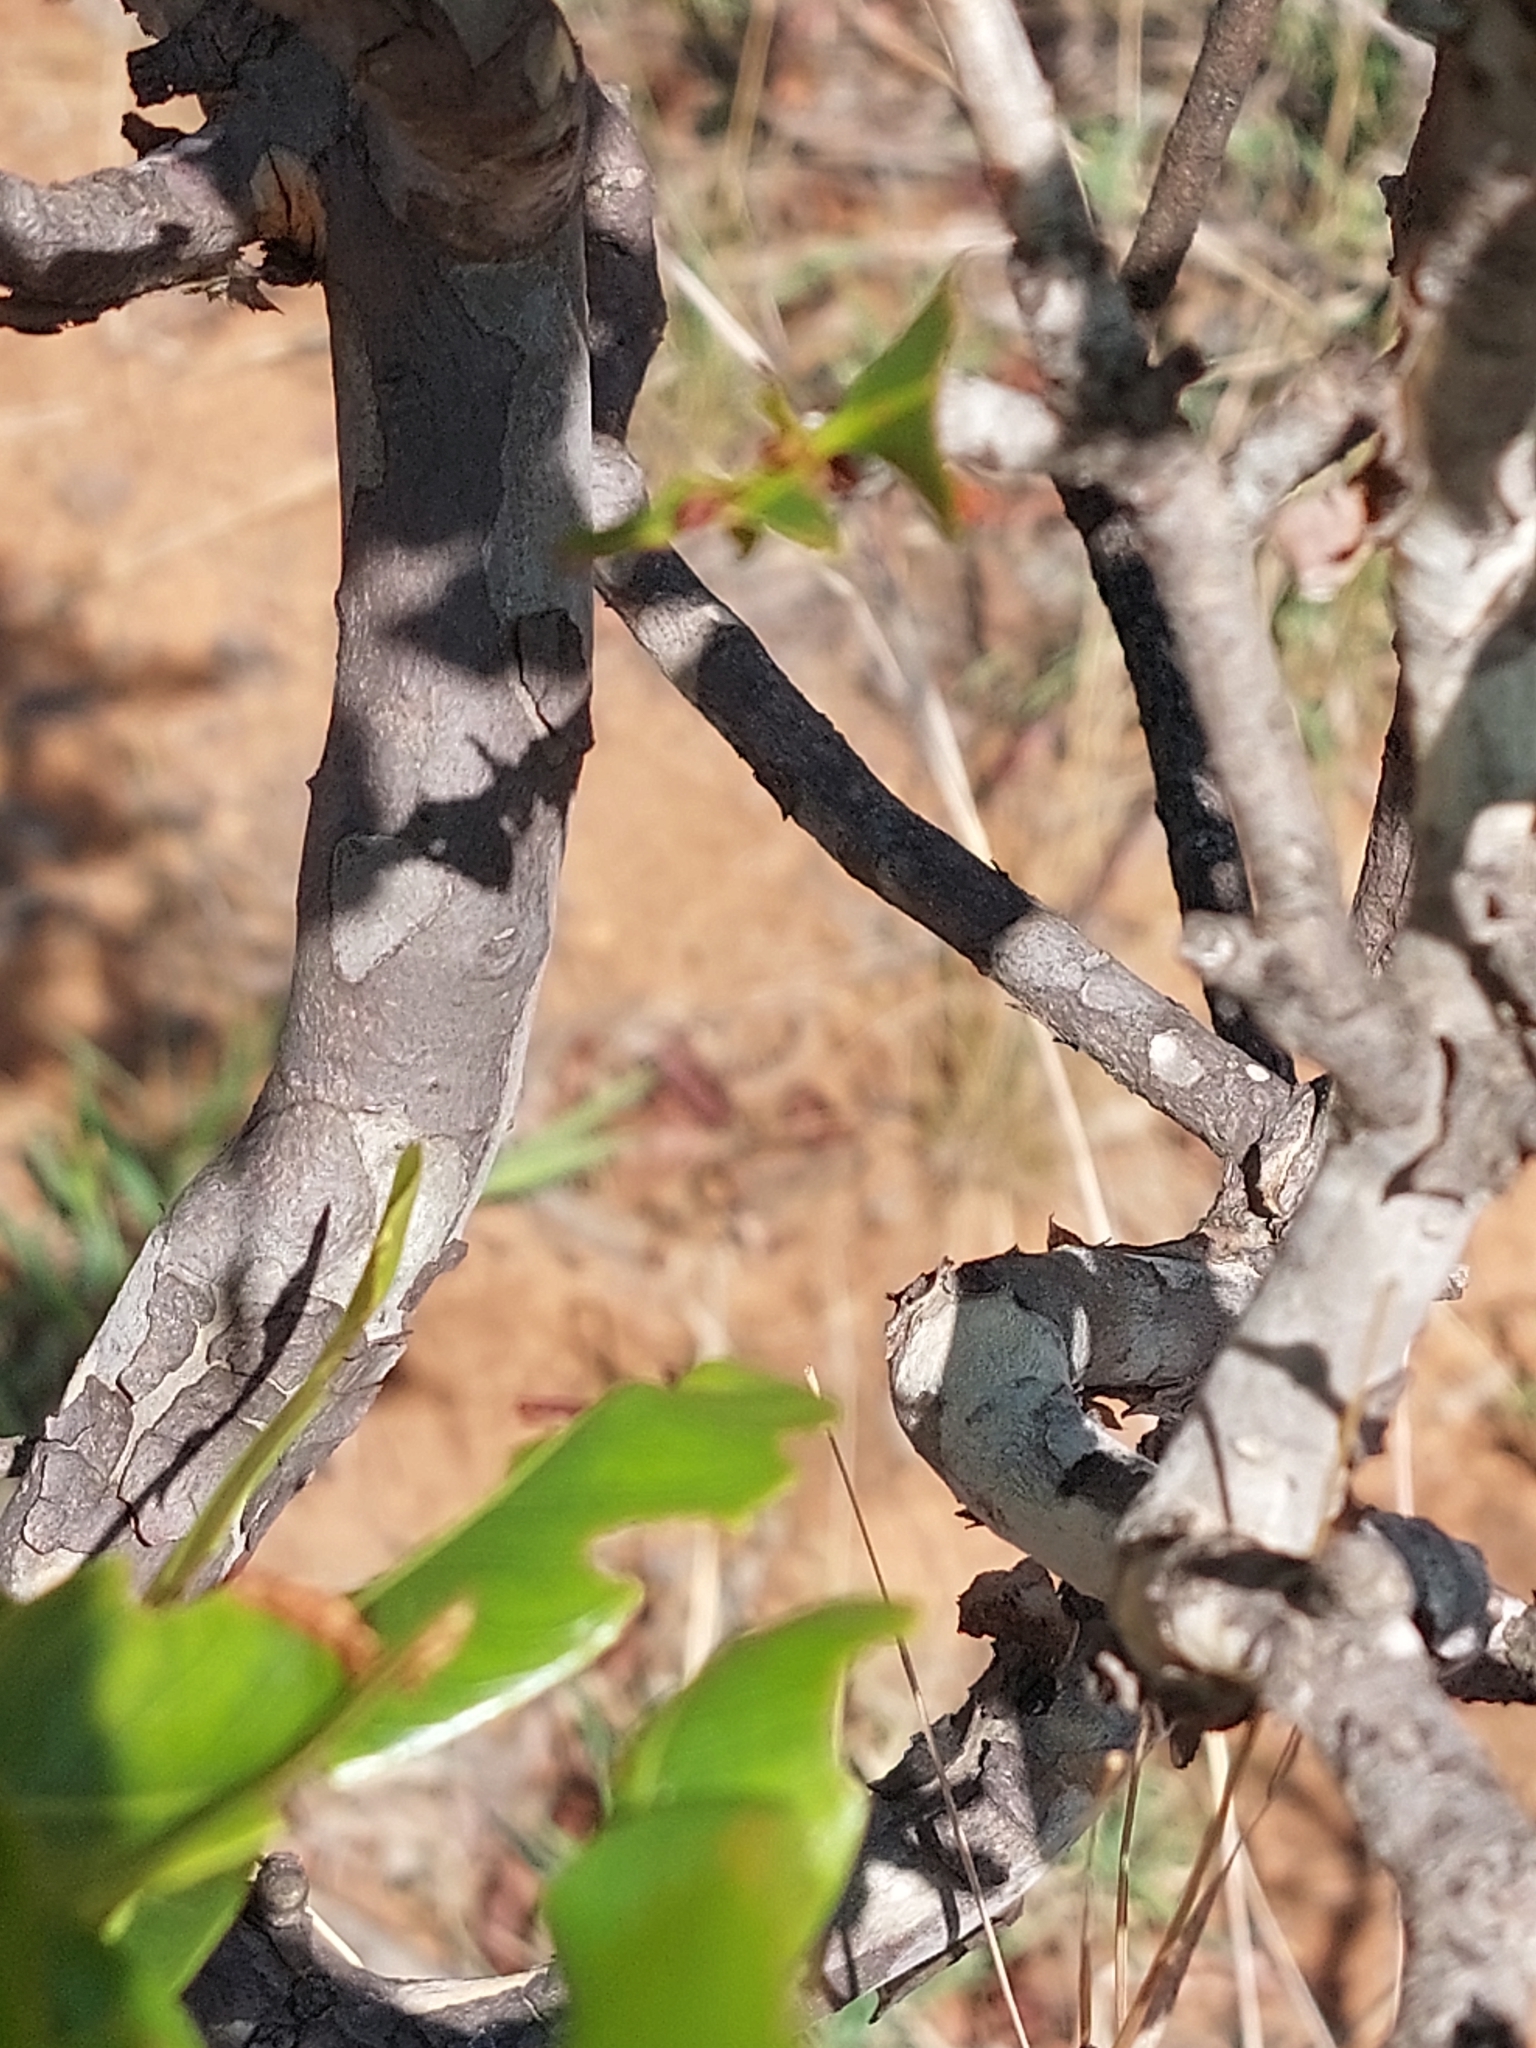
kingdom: Plantae
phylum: Tracheophyta
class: Magnoliopsida
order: Malpighiales
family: Ochnaceae
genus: Ochna
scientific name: Ochna pulchra
